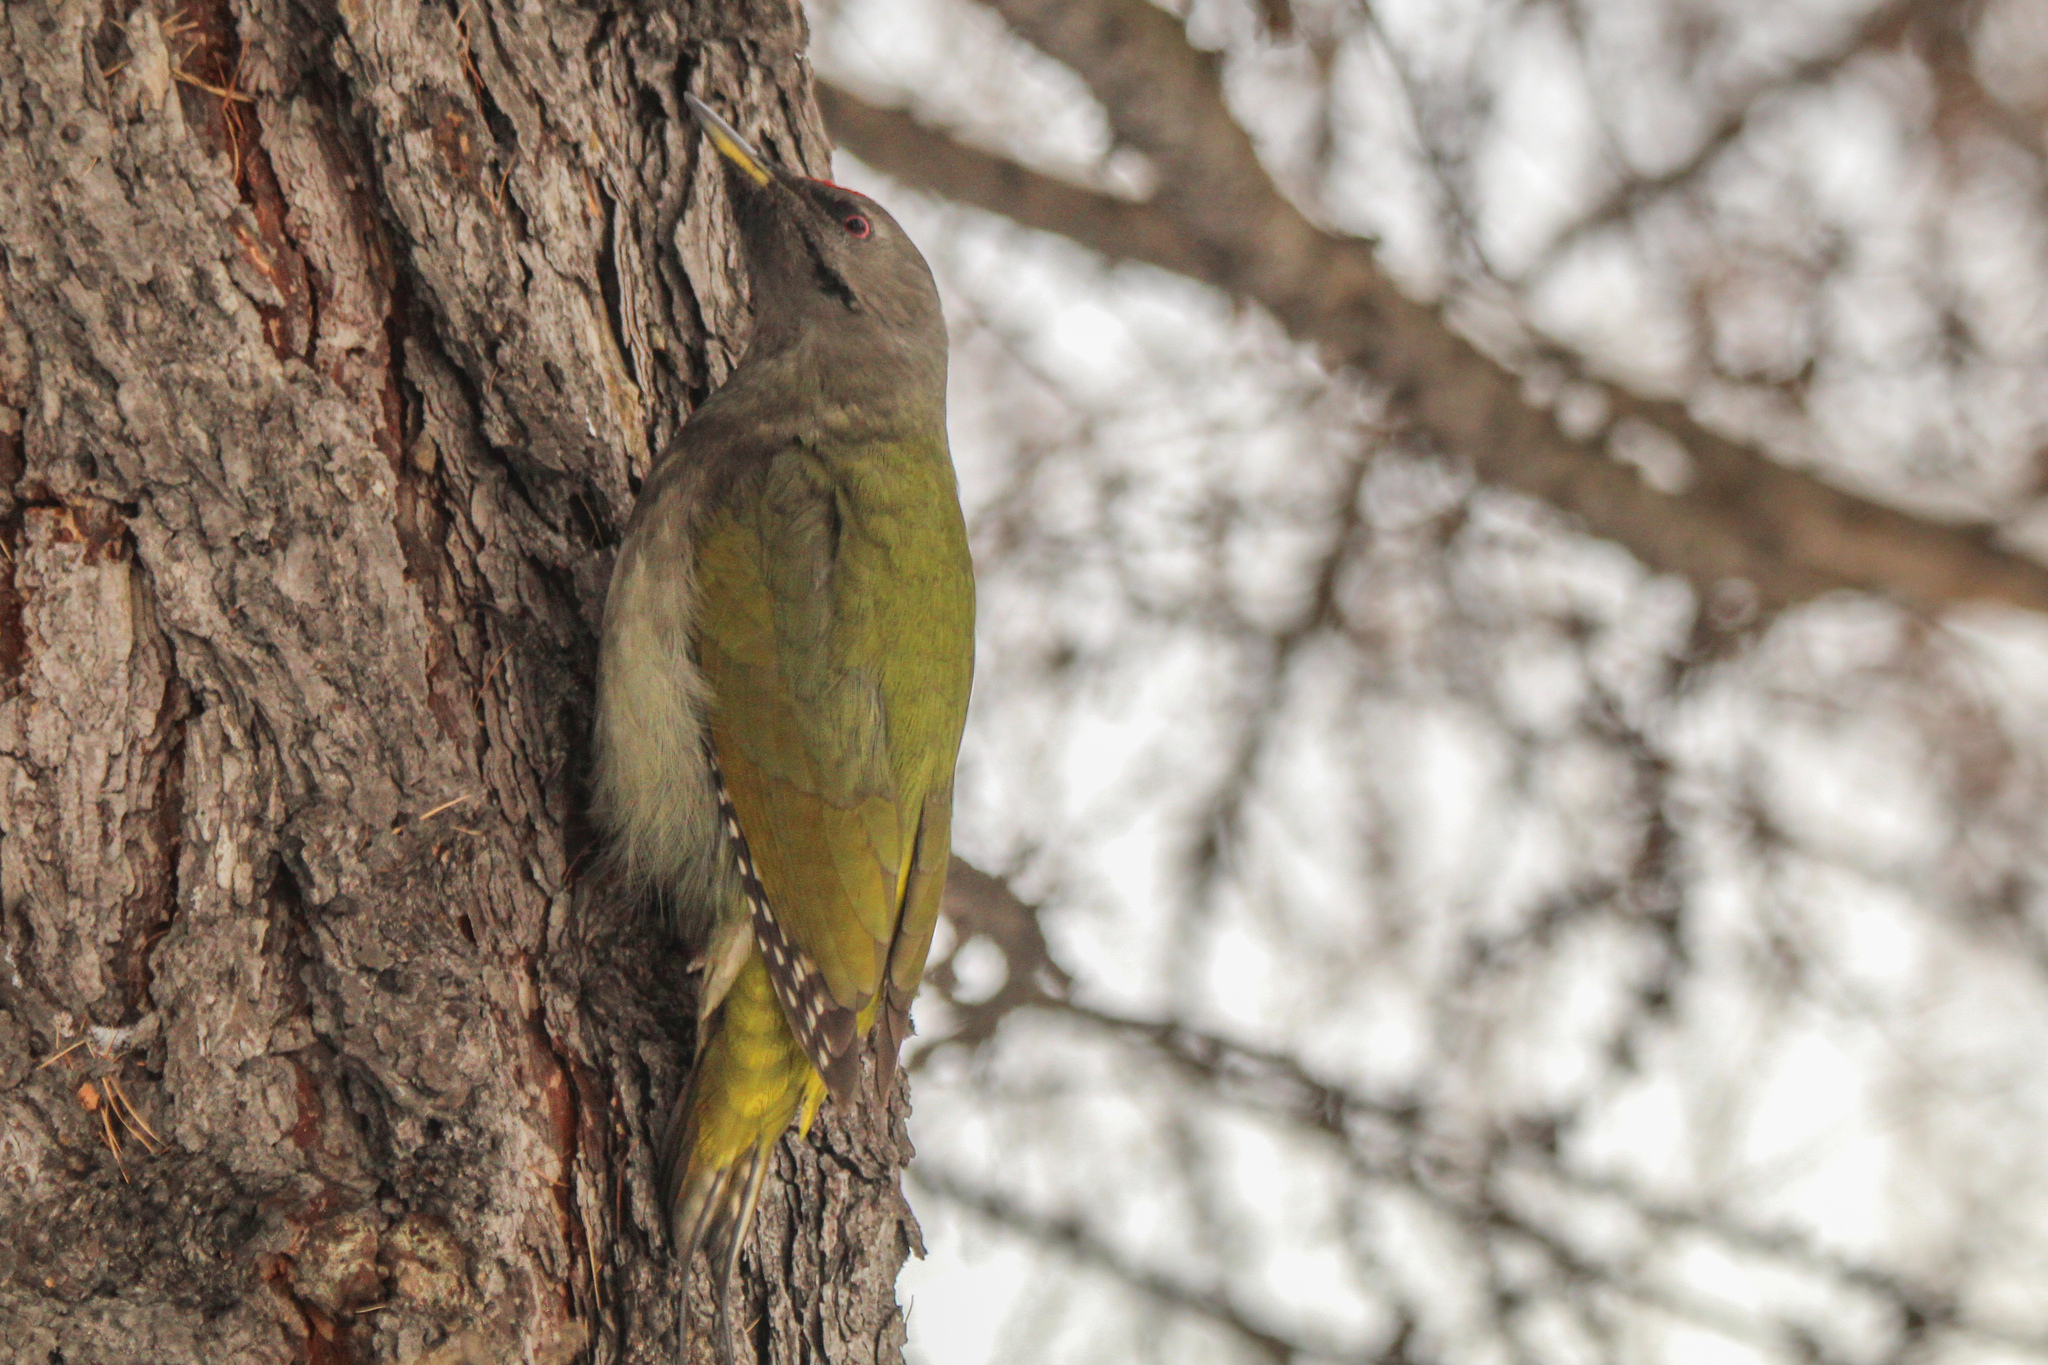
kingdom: Animalia
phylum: Chordata
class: Aves
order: Piciformes
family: Picidae
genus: Picus
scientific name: Picus canus
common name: Grey-headed woodpecker
